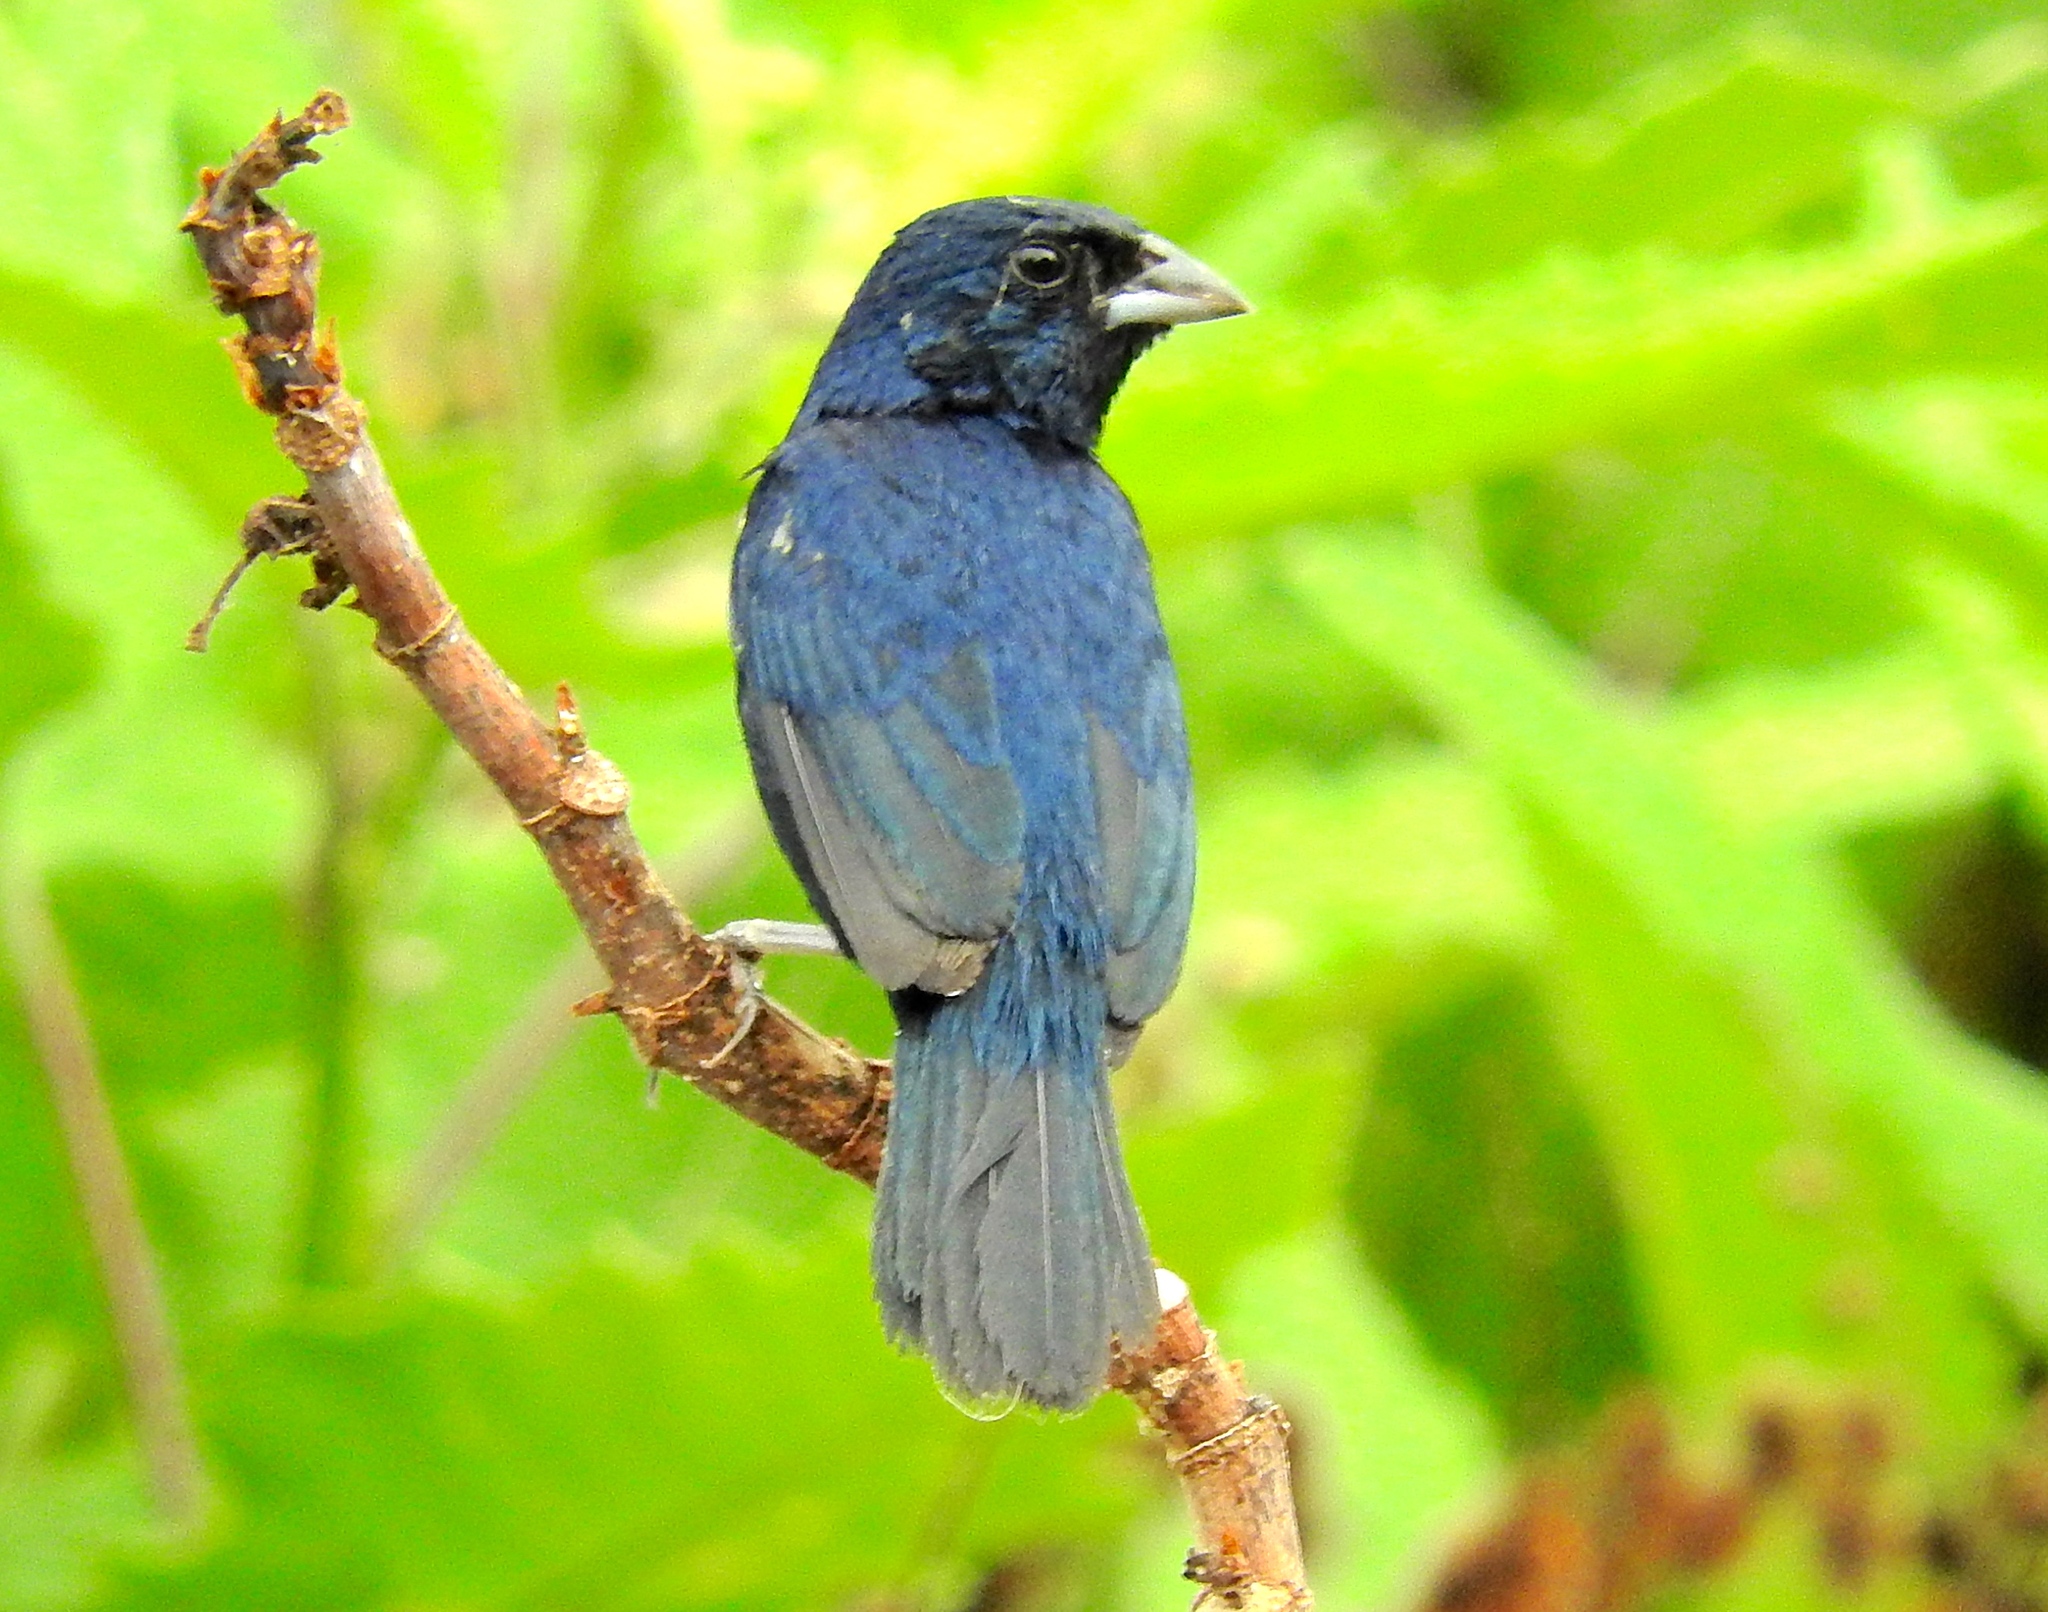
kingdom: Animalia
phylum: Chordata
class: Aves
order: Passeriformes
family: Thraupidae
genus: Volatinia
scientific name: Volatinia jacarina
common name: Blue-black grassquit
